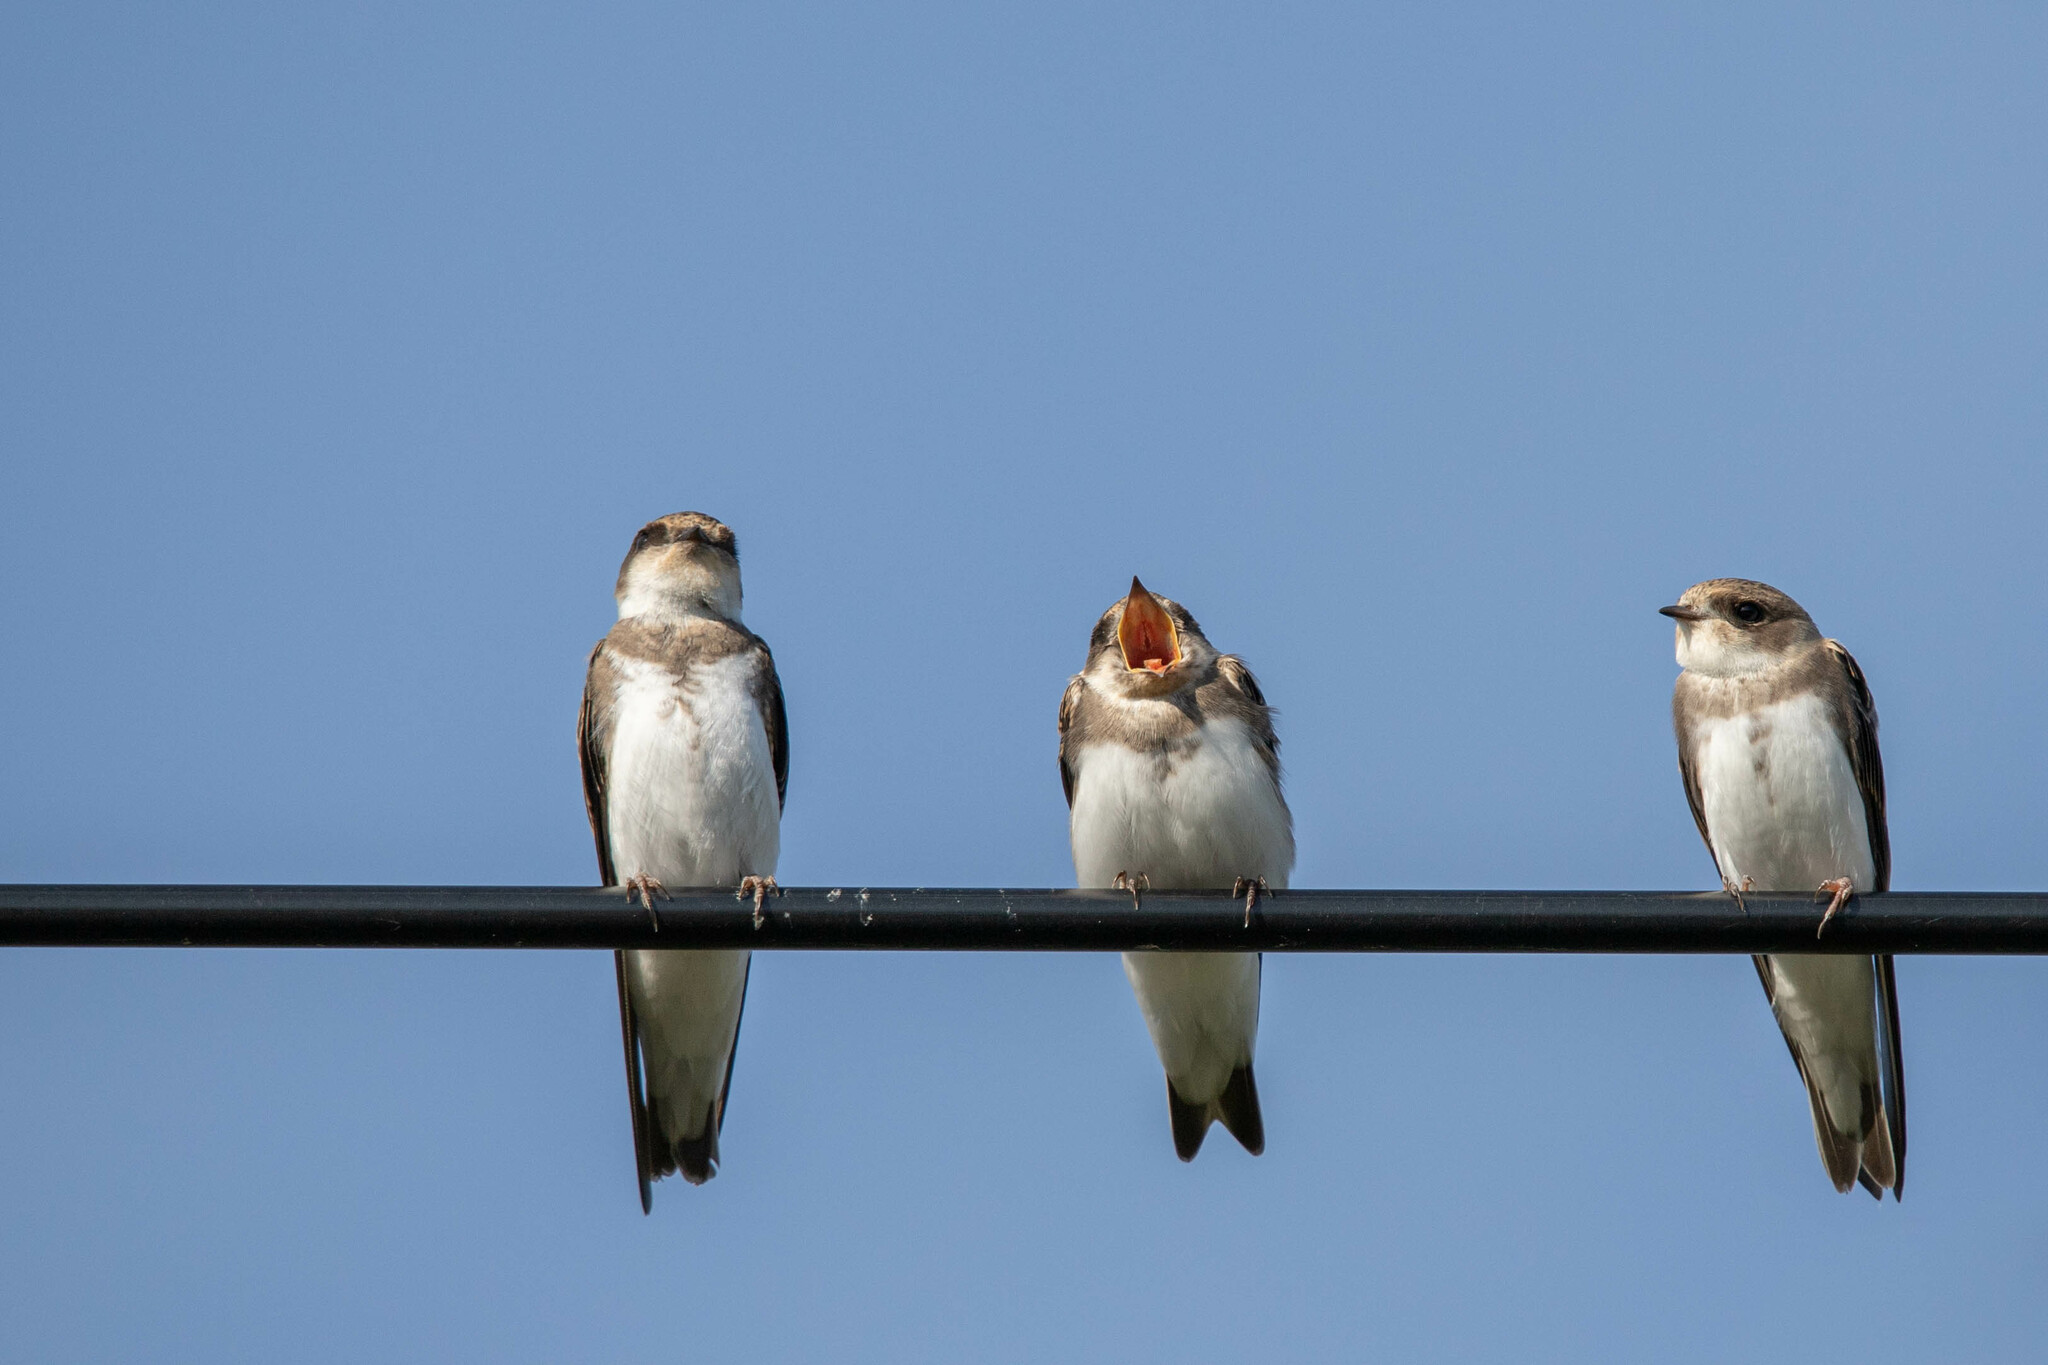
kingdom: Animalia
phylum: Chordata
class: Aves
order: Passeriformes
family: Hirundinidae
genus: Riparia
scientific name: Riparia riparia
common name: Sand martin
